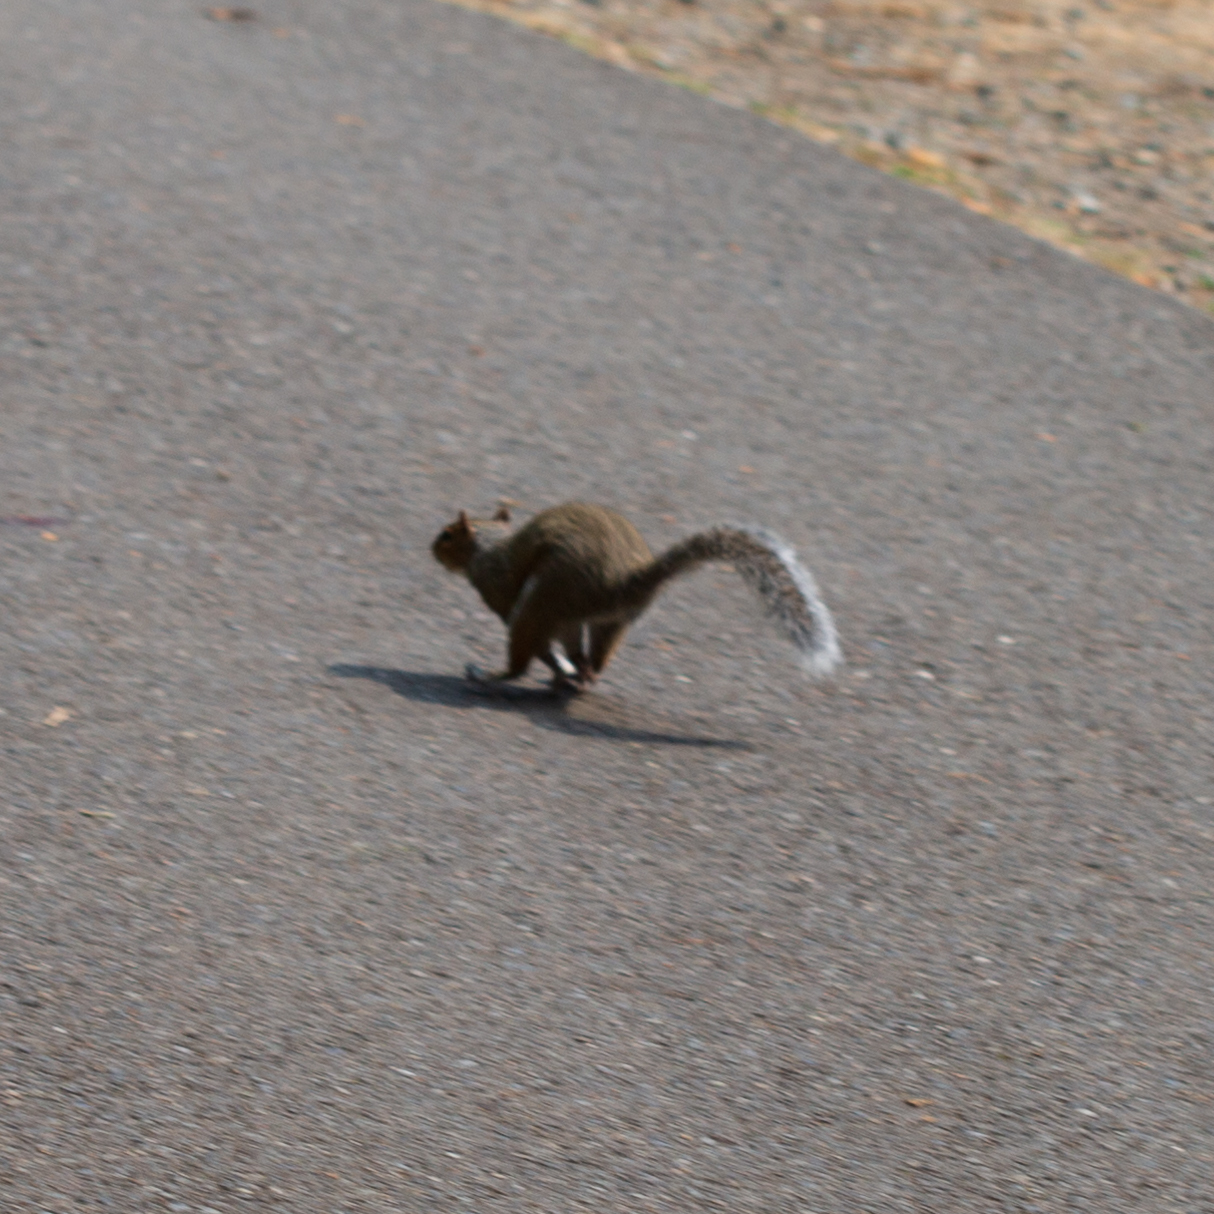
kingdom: Animalia
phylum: Chordata
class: Mammalia
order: Rodentia
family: Sciuridae
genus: Sciurus
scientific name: Sciurus carolinensis
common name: Eastern gray squirrel
